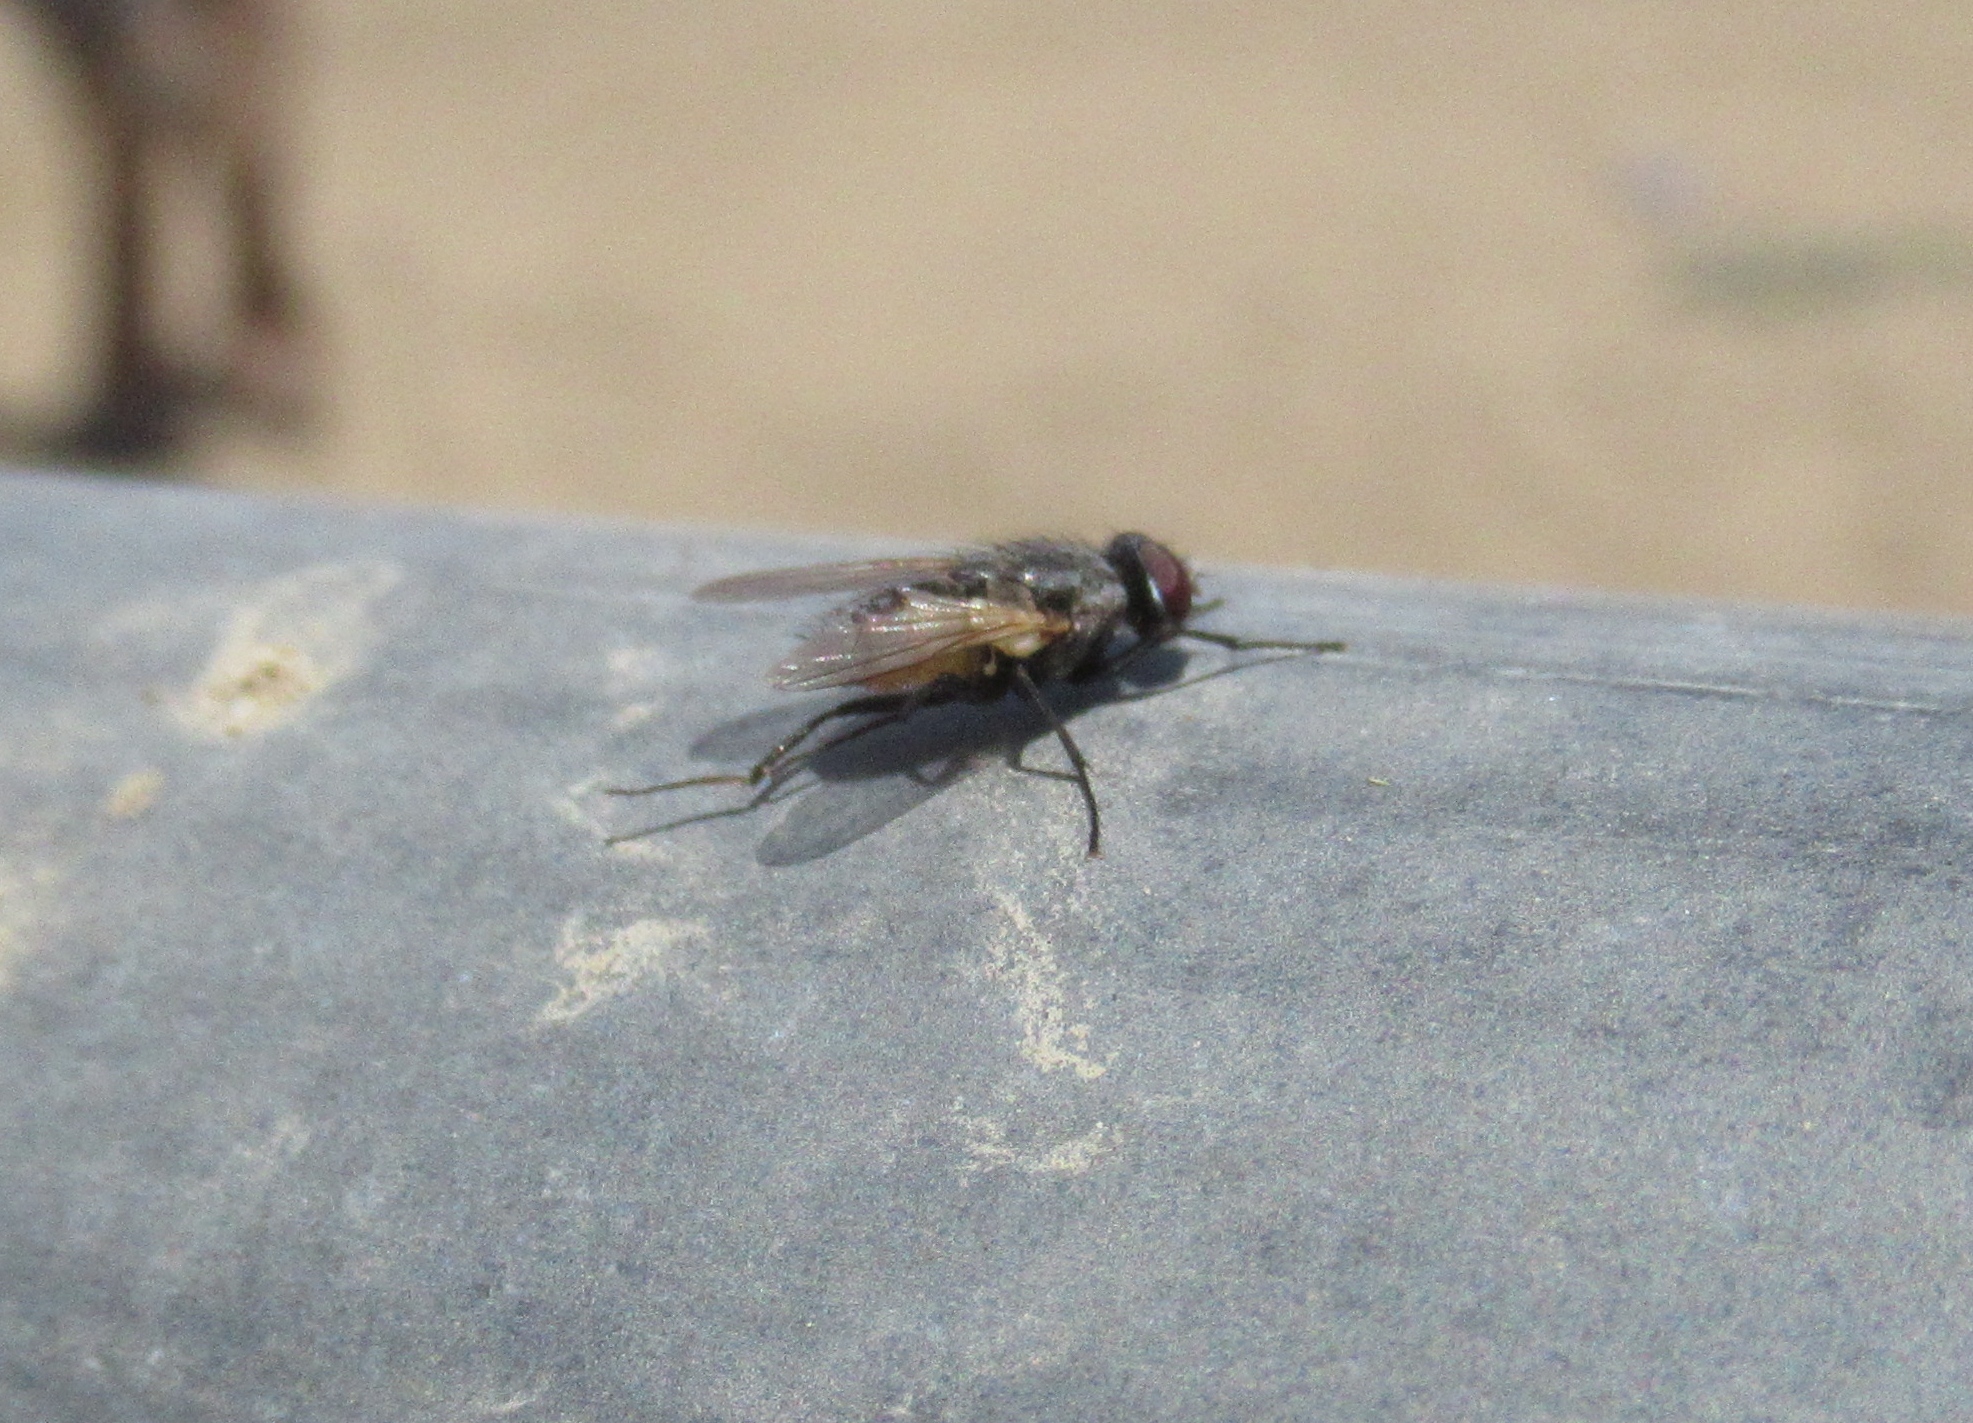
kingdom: Animalia
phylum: Arthropoda
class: Insecta
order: Diptera
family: Muscidae
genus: Musca
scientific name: Musca domestica
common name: House fly
